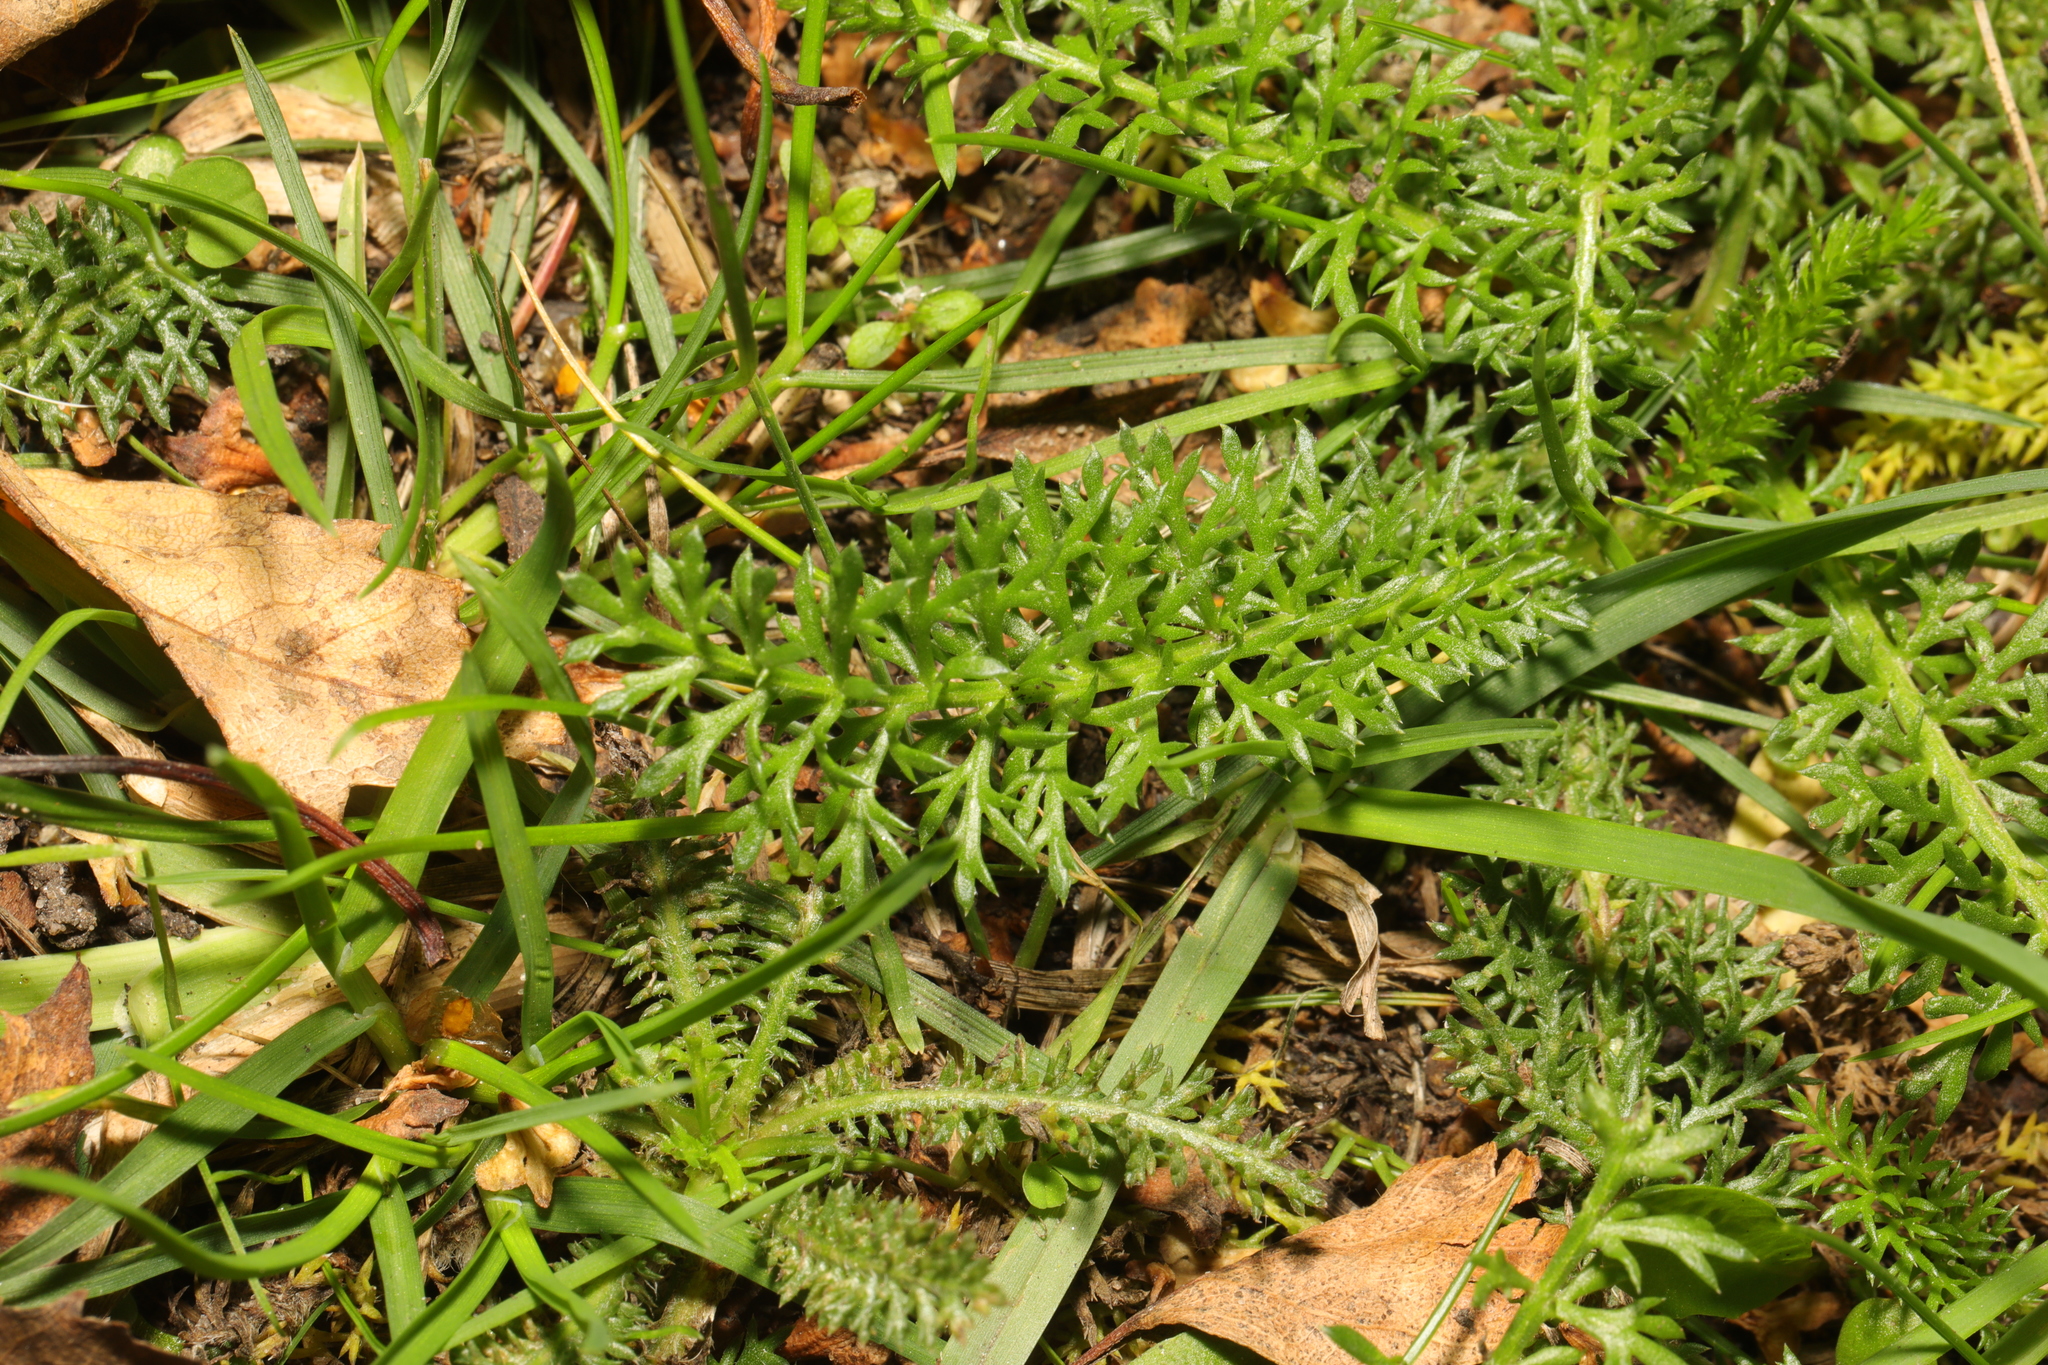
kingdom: Plantae
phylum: Tracheophyta
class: Magnoliopsida
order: Asterales
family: Asteraceae
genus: Achillea
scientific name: Achillea millefolium
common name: Yarrow
